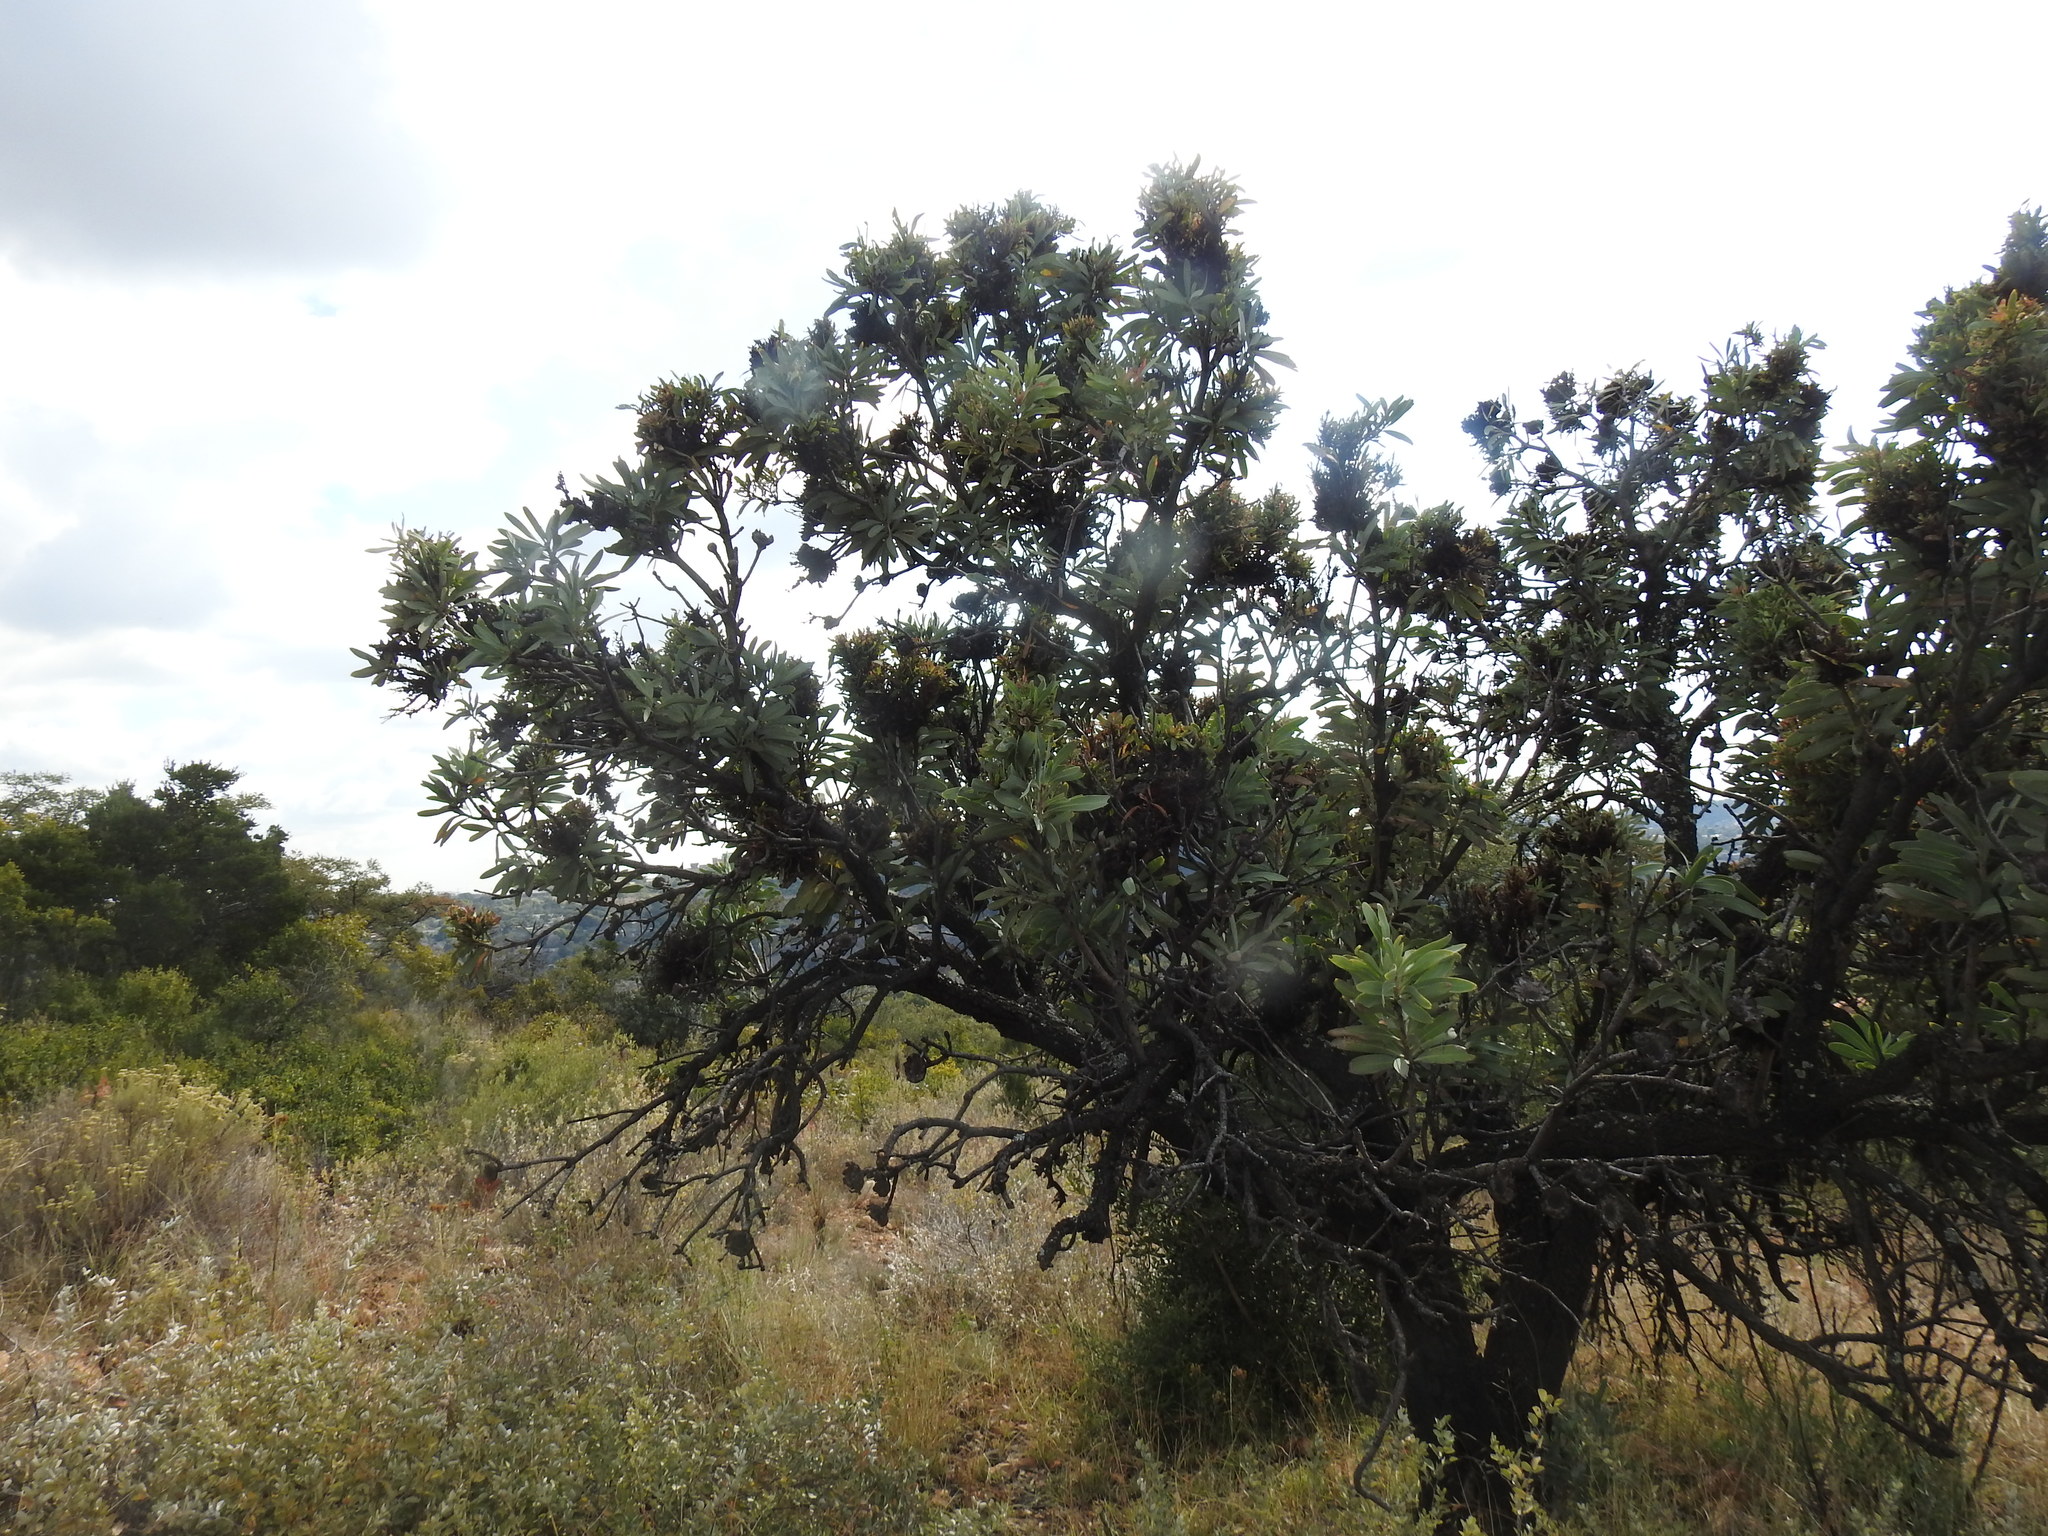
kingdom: Bacteria
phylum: Firmicutes
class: Bacilli
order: Acholeplasmatales
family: Acholeplasmataceae
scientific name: Acholeplasmataceae
